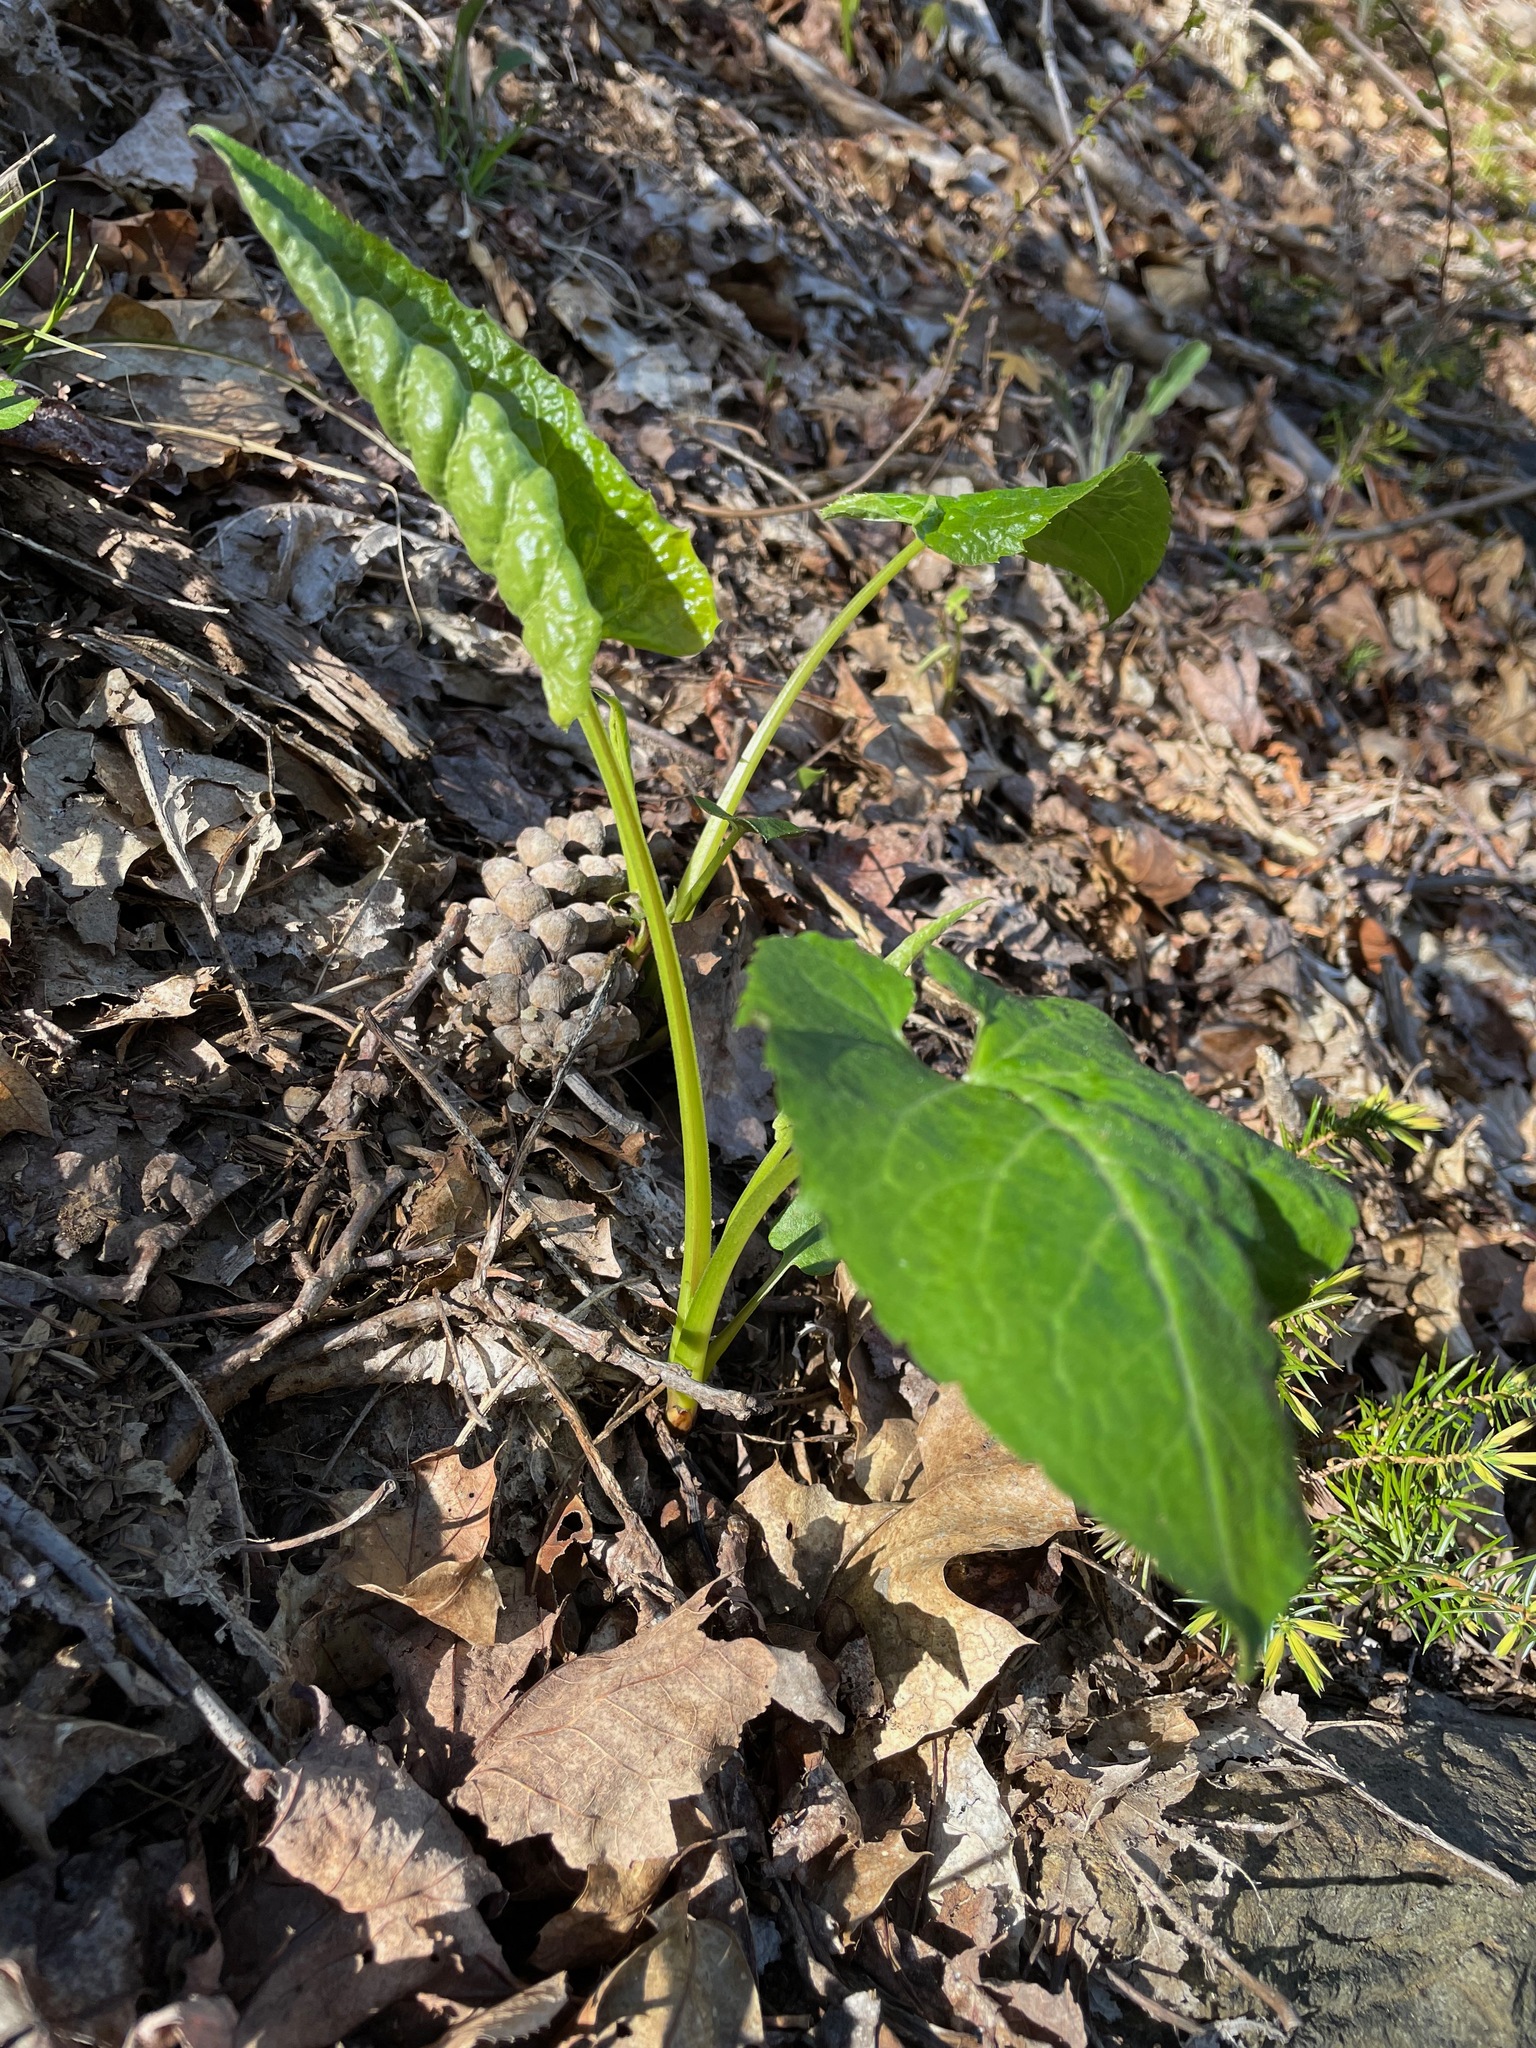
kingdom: Plantae
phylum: Tracheophyta
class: Magnoliopsida
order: Asterales
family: Asteraceae
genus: Eurybia
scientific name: Eurybia macrophylla
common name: Big-leaved aster
